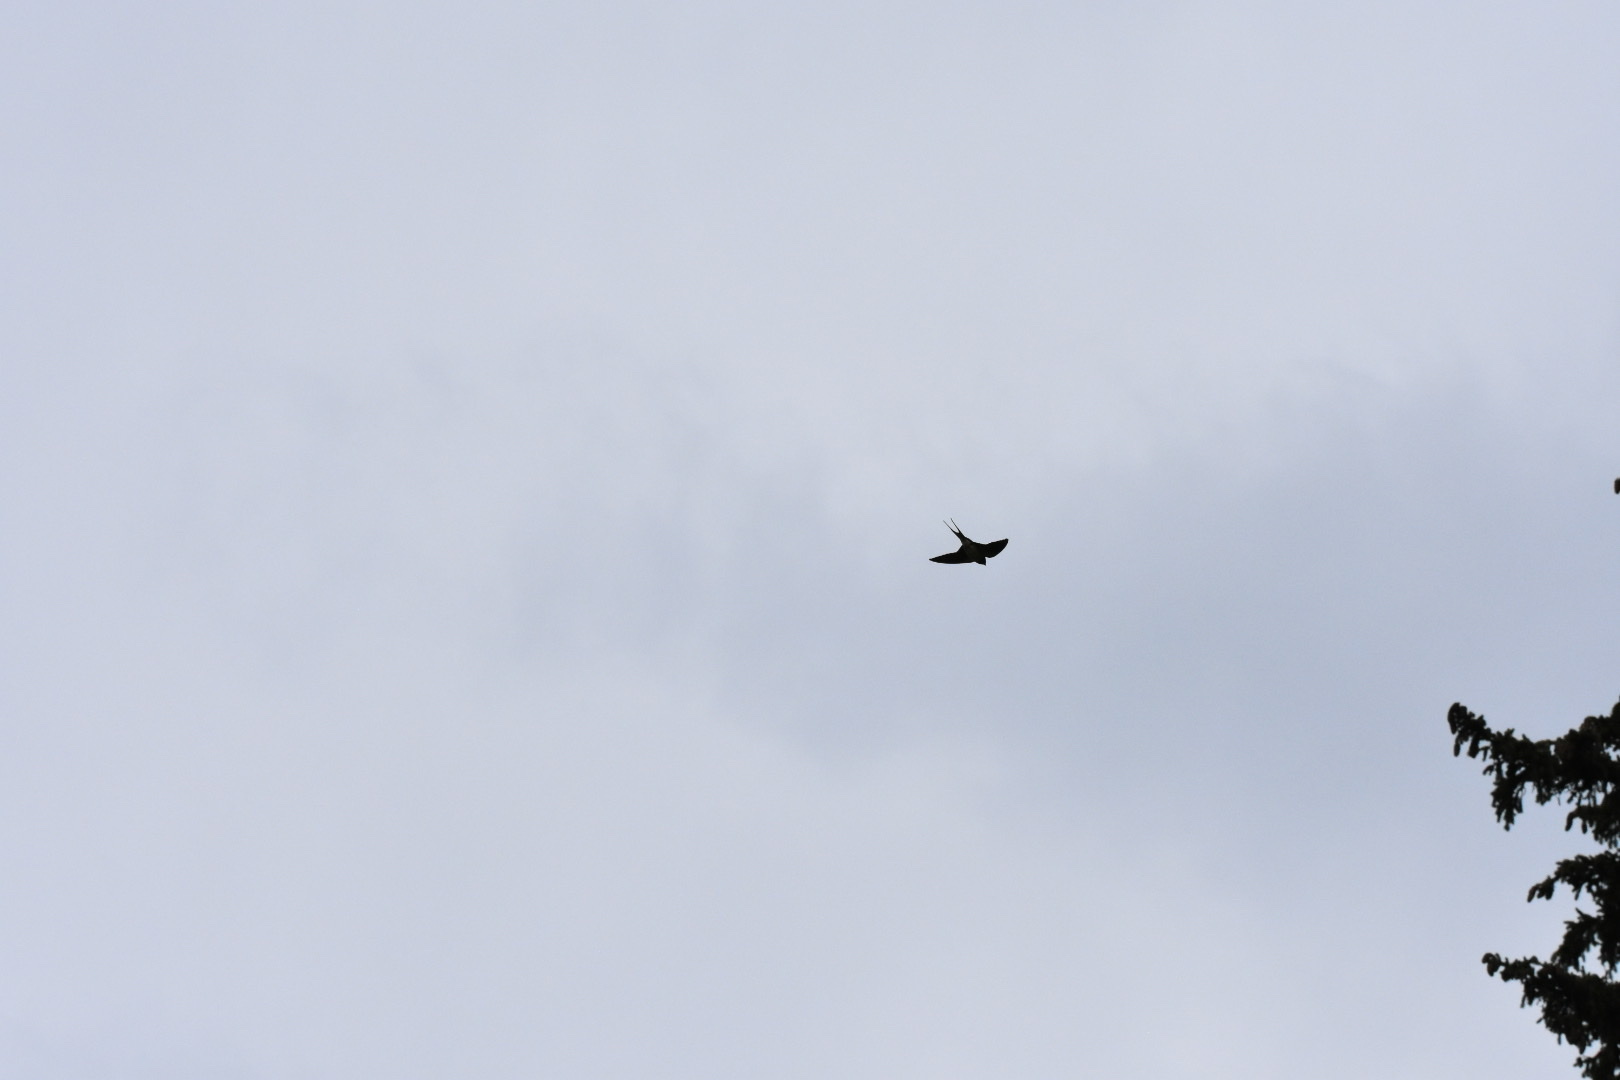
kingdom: Animalia
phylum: Chordata
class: Aves
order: Passeriformes
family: Hirundinidae
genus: Hirundo
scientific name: Hirundo rustica
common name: Barn swallow
